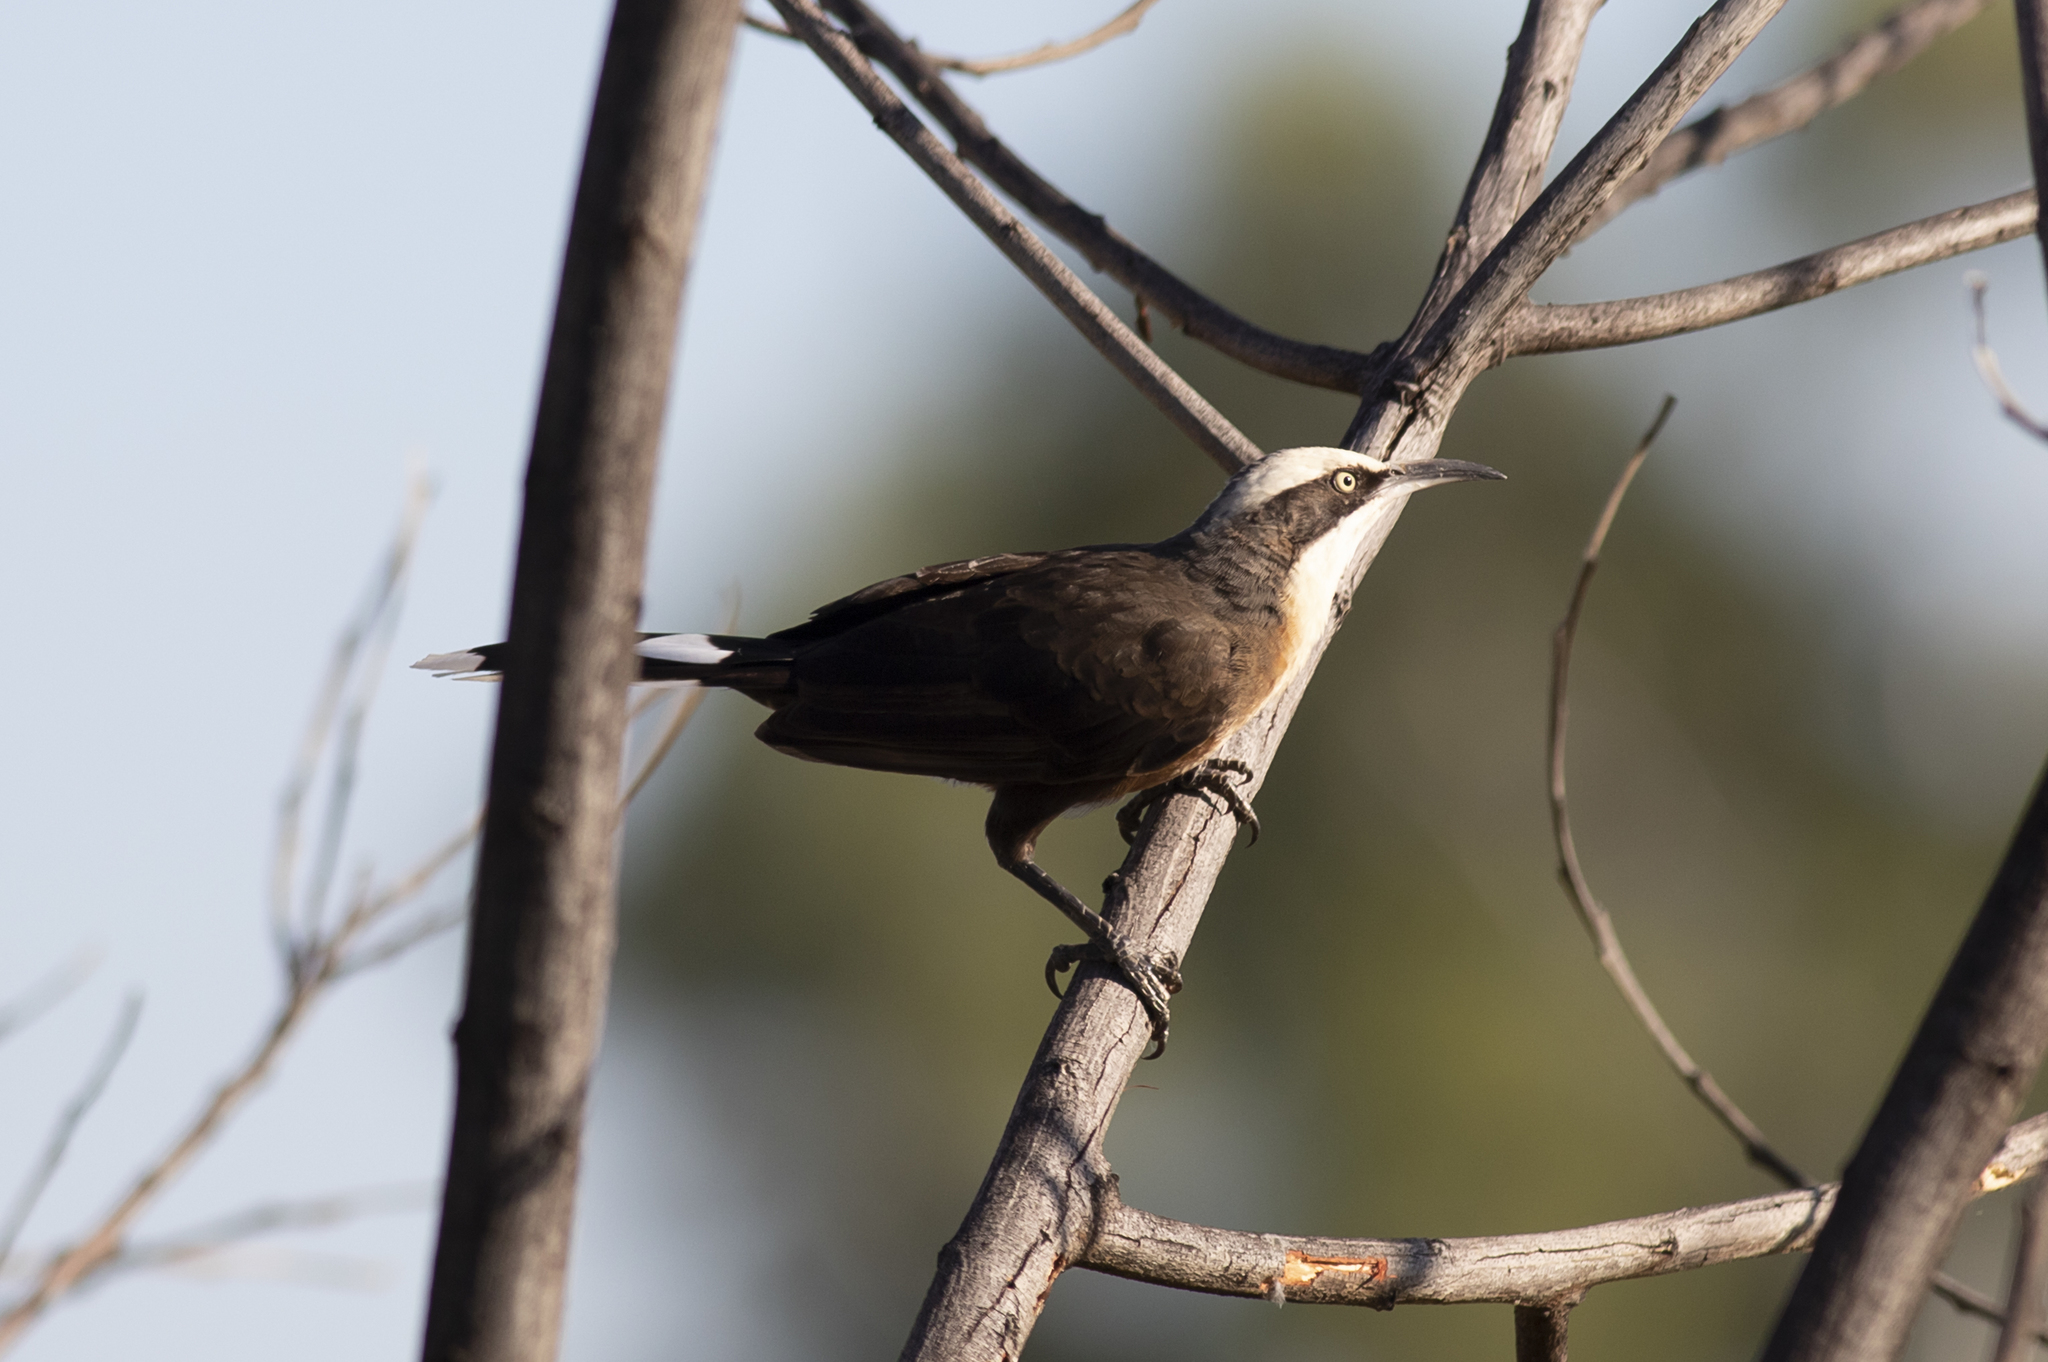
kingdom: Animalia
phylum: Chordata
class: Aves
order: Passeriformes
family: Pomatostomidae
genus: Pomatostomus
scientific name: Pomatostomus temporalis
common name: Grey-crowned babbler
